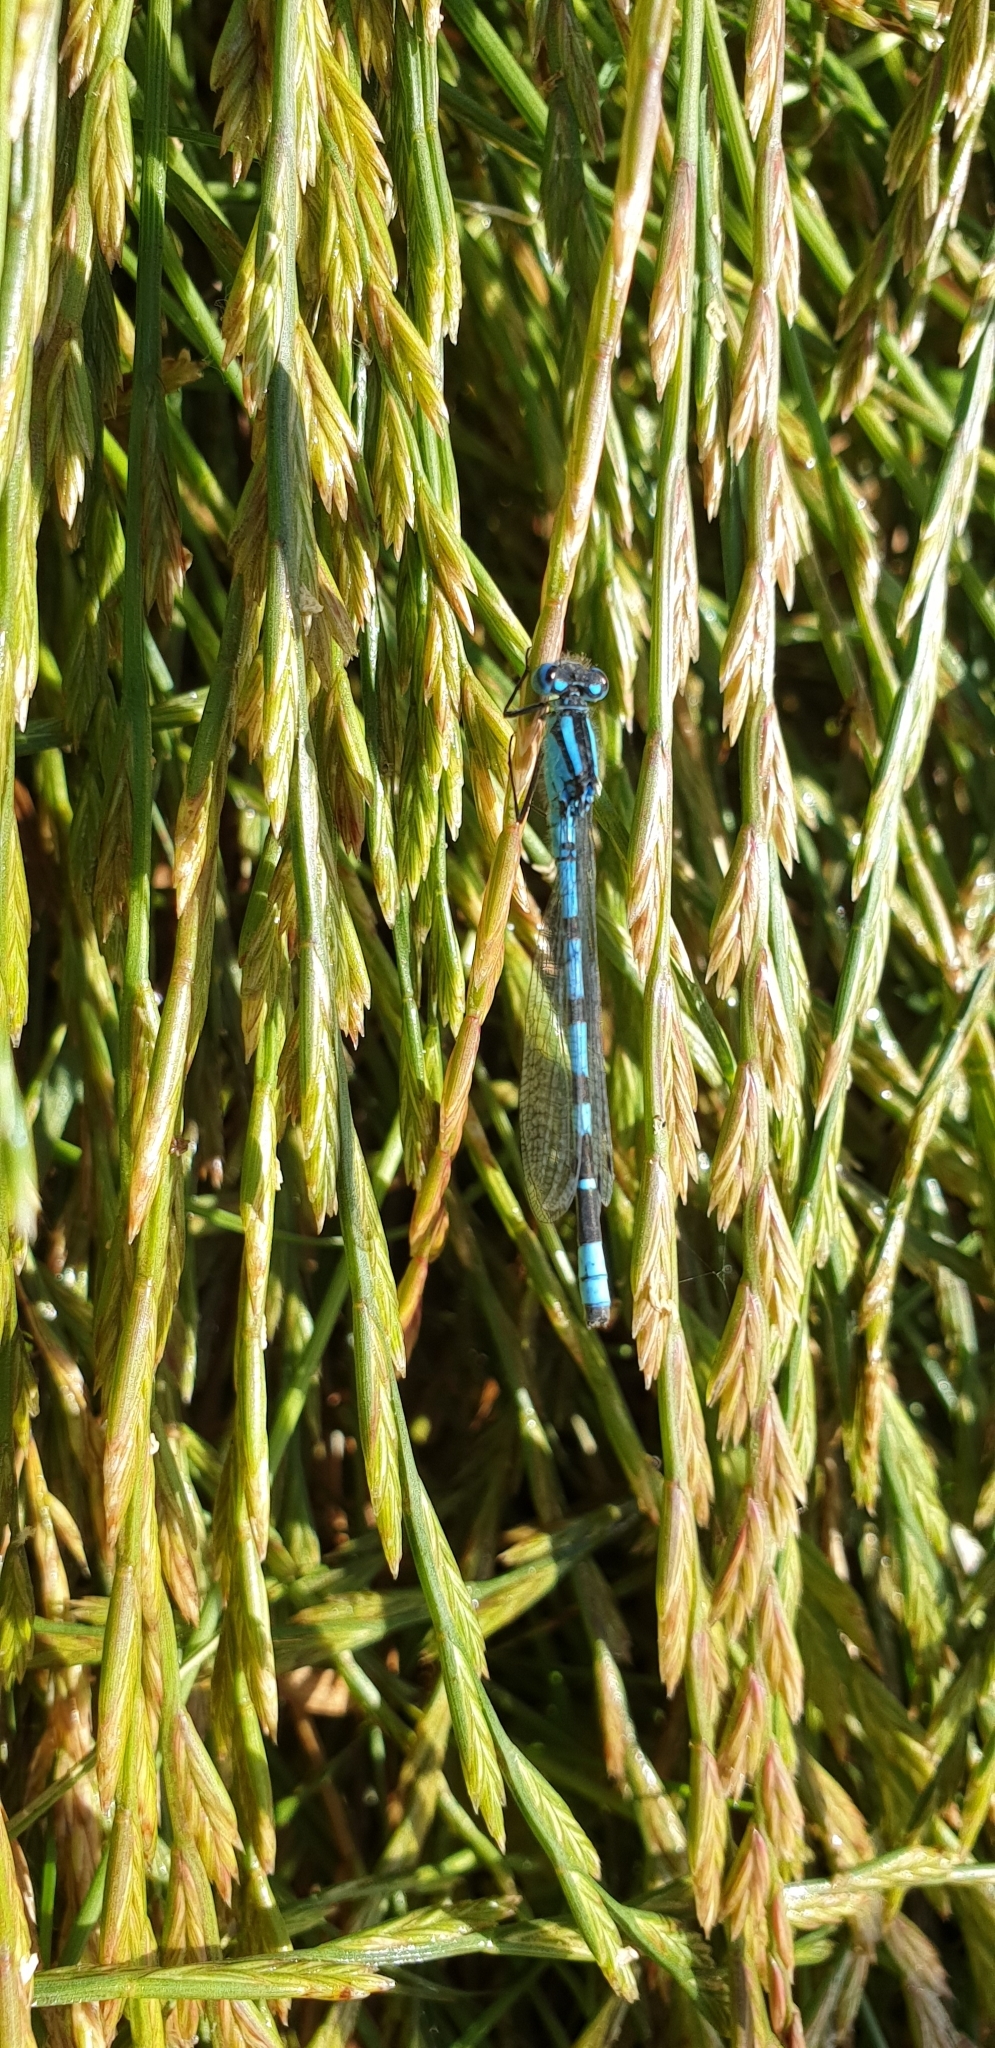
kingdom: Animalia
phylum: Arthropoda
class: Insecta
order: Odonata
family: Coenagrionidae
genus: Enallagma
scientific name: Enallagma cyathigerum
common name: Common blue damselfly
